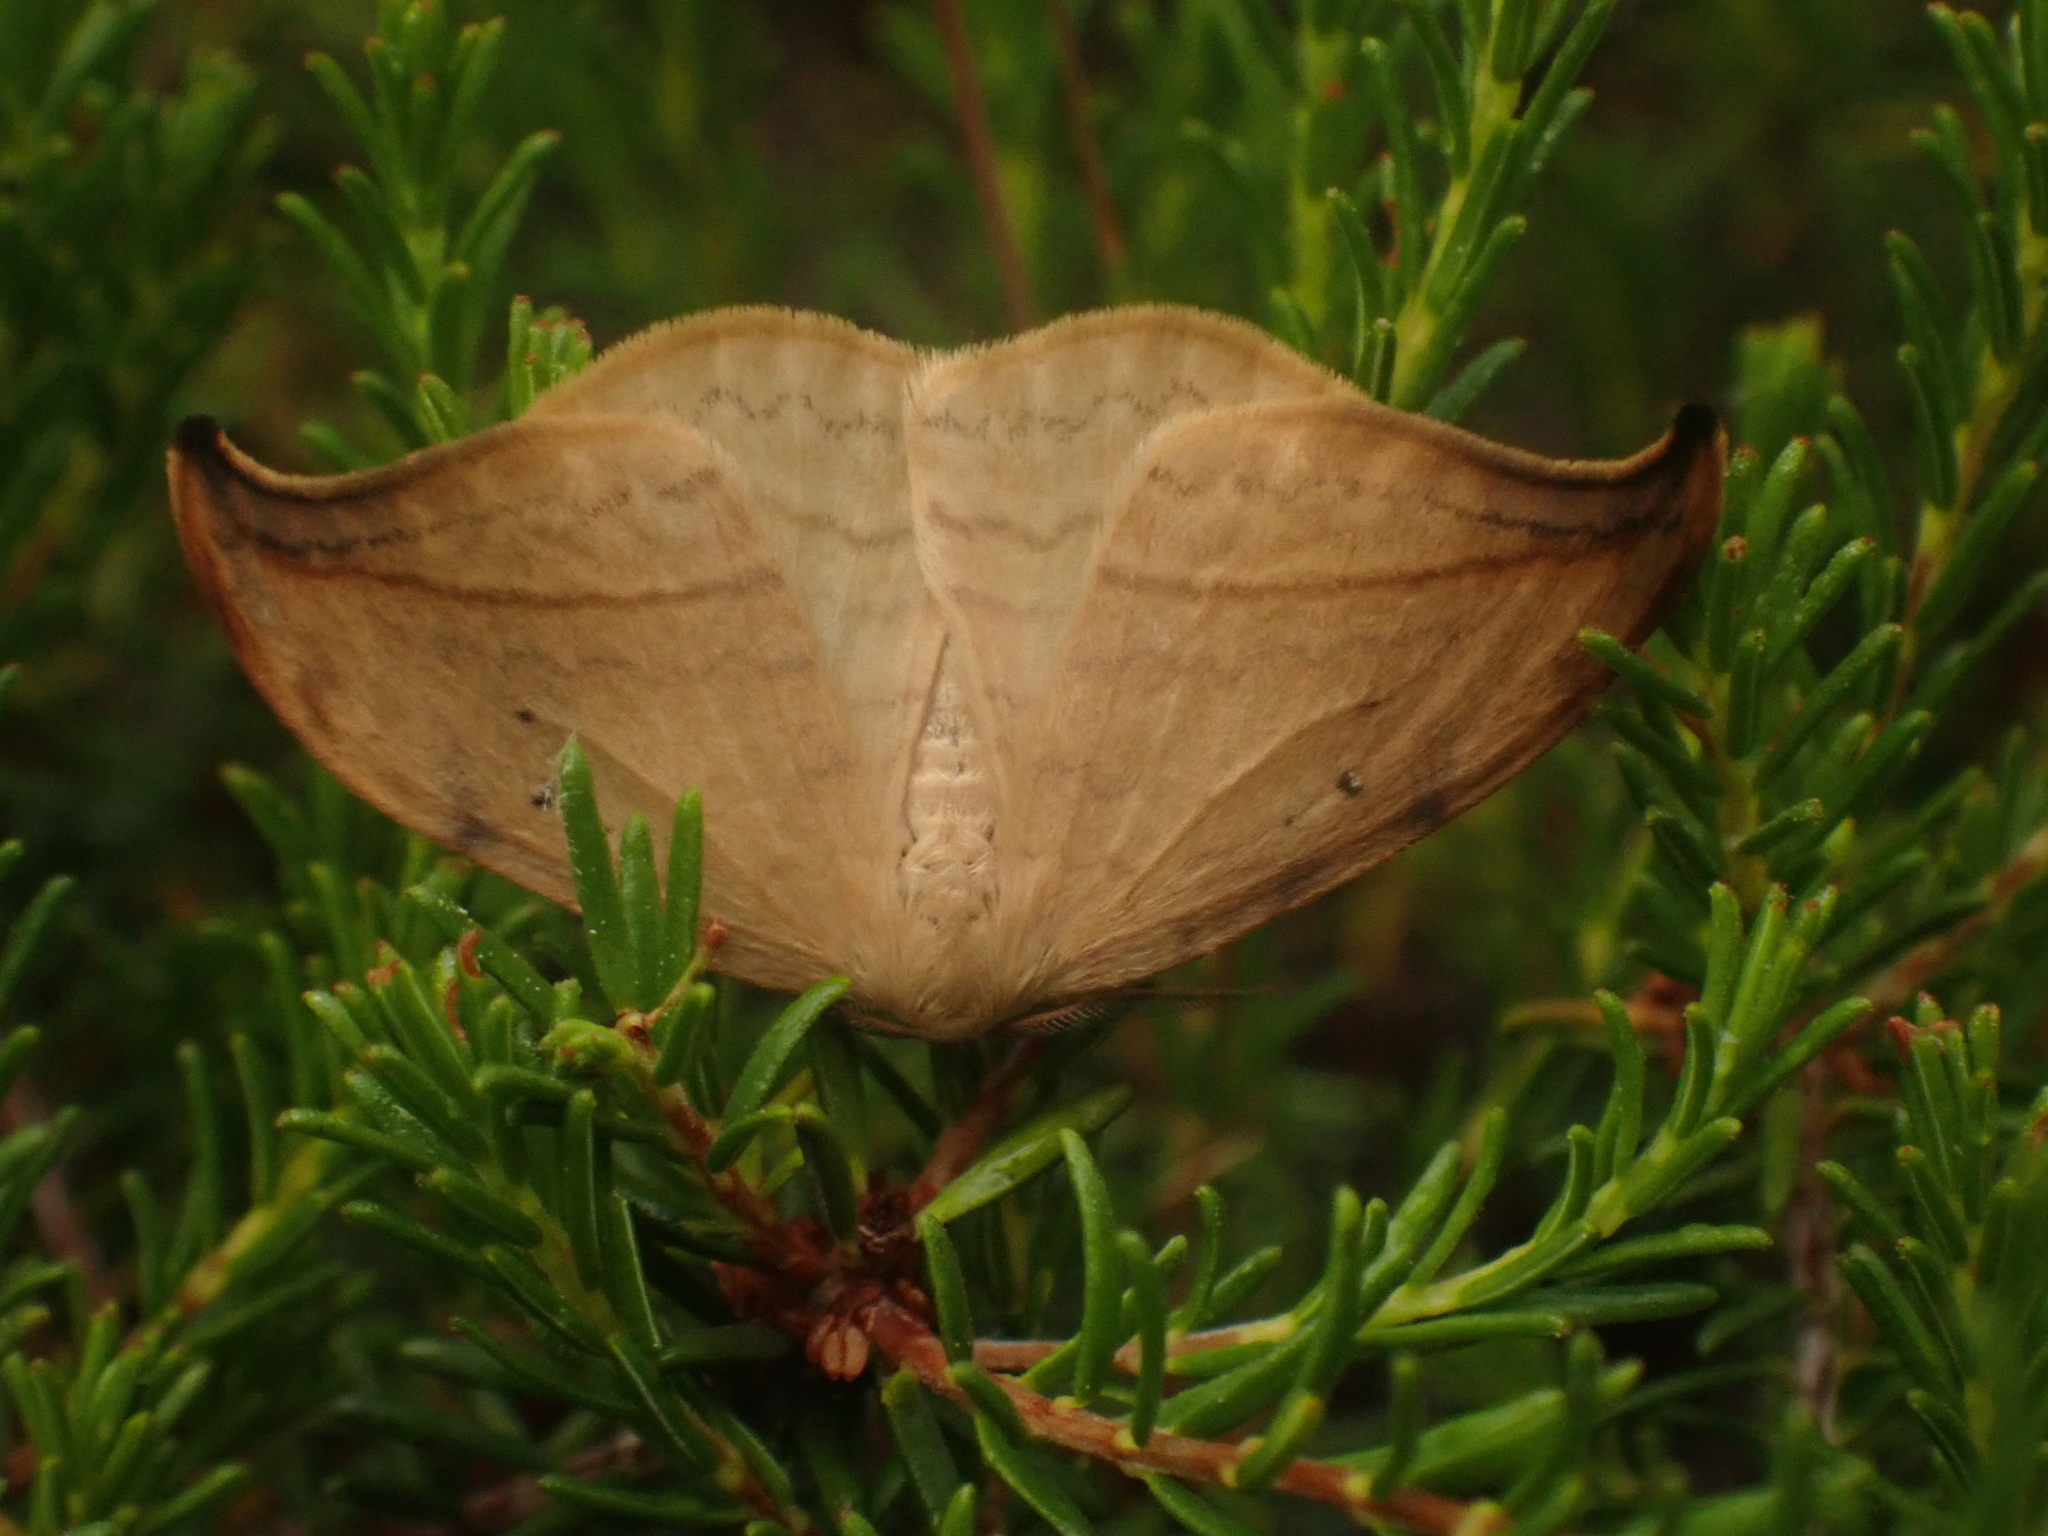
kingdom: Animalia
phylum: Arthropoda
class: Insecta
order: Lepidoptera
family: Drepanidae
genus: Drepana
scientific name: Drepana arcuata
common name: Arched hooktip moth
